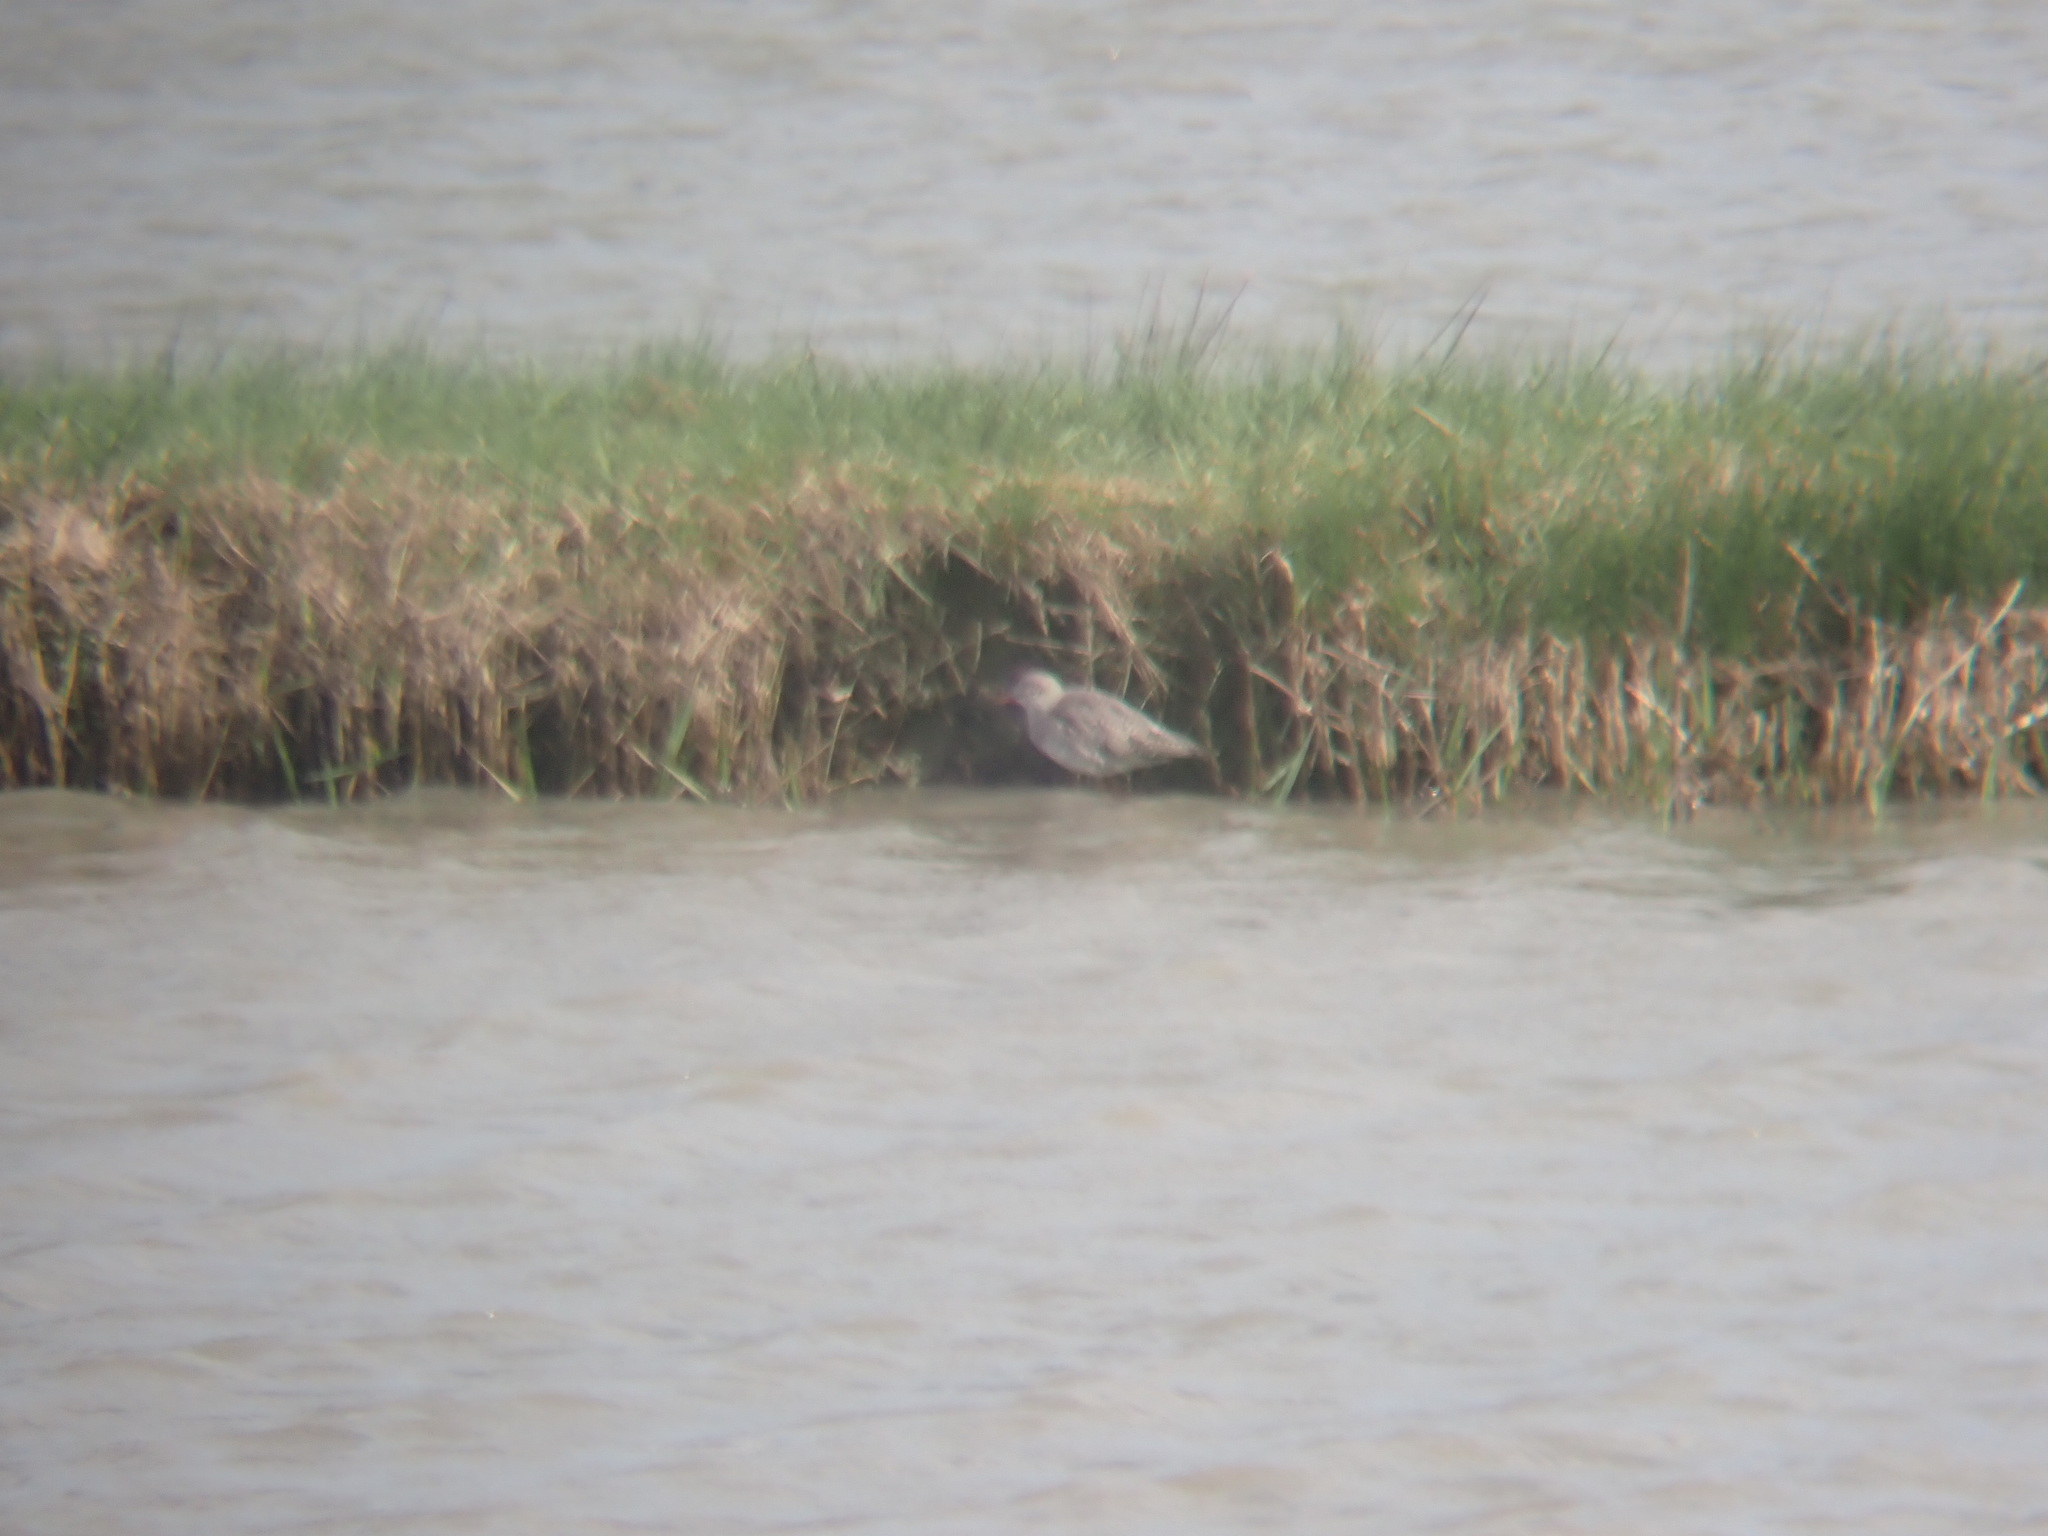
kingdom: Animalia
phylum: Chordata
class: Aves
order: Charadriiformes
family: Scolopacidae
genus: Tringa
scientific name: Tringa totanus
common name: Common redshank
